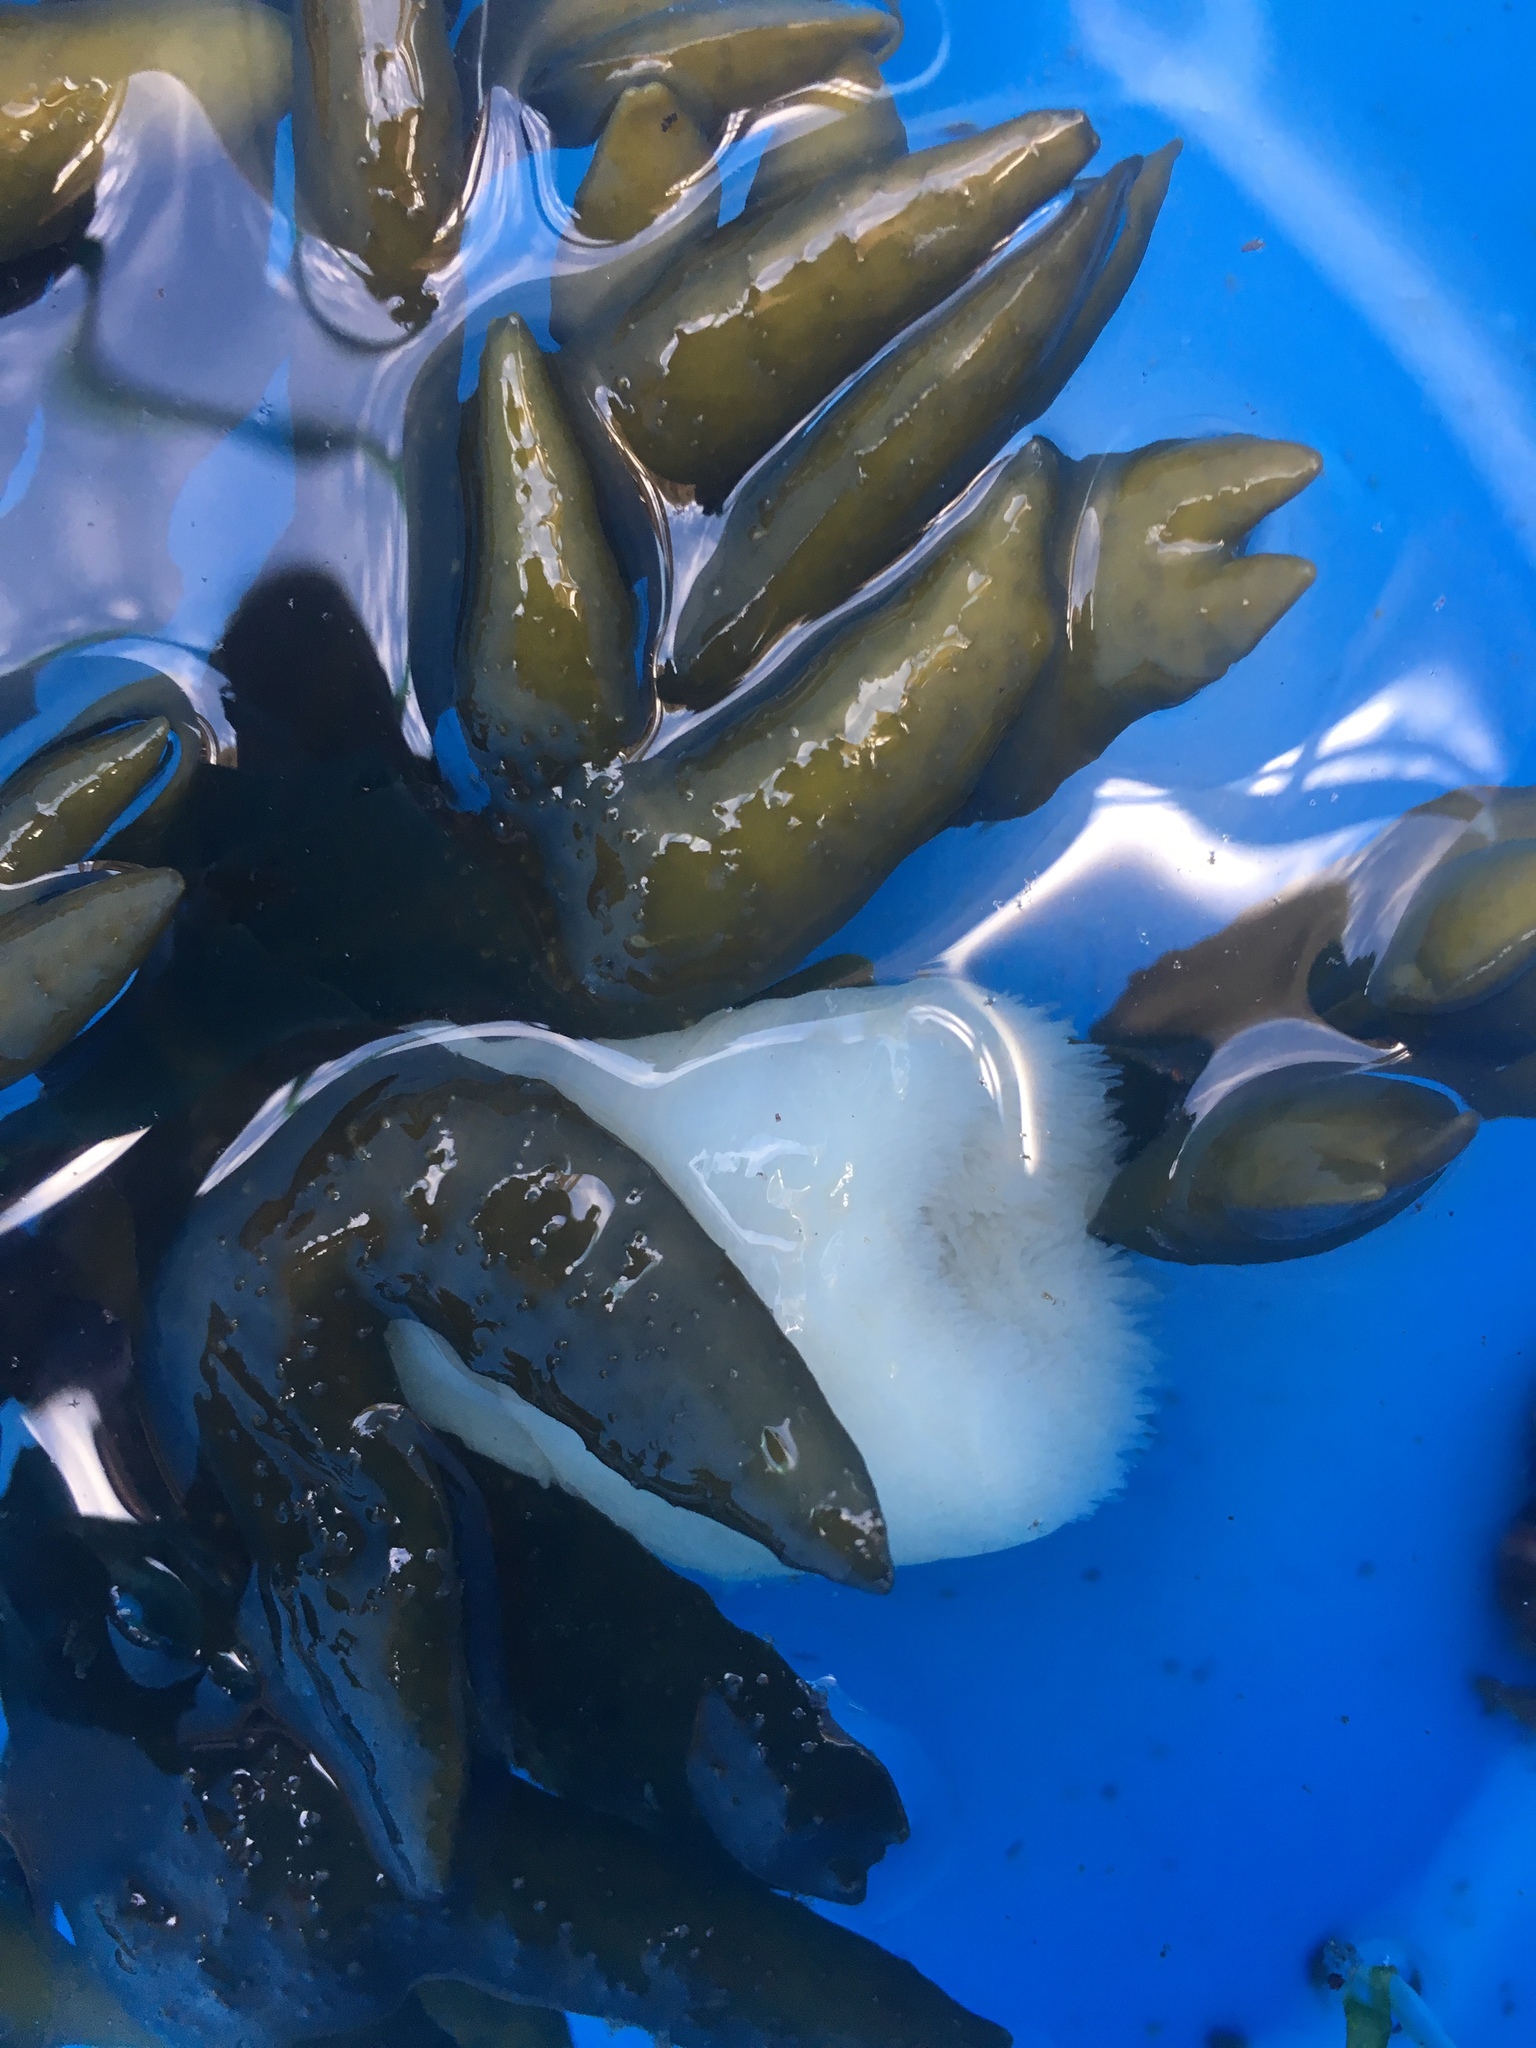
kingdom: Animalia
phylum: Cnidaria
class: Anthozoa
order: Actiniaria
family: Metridiidae
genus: Metridium
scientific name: Metridium senile
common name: Clonal plumose anemone
